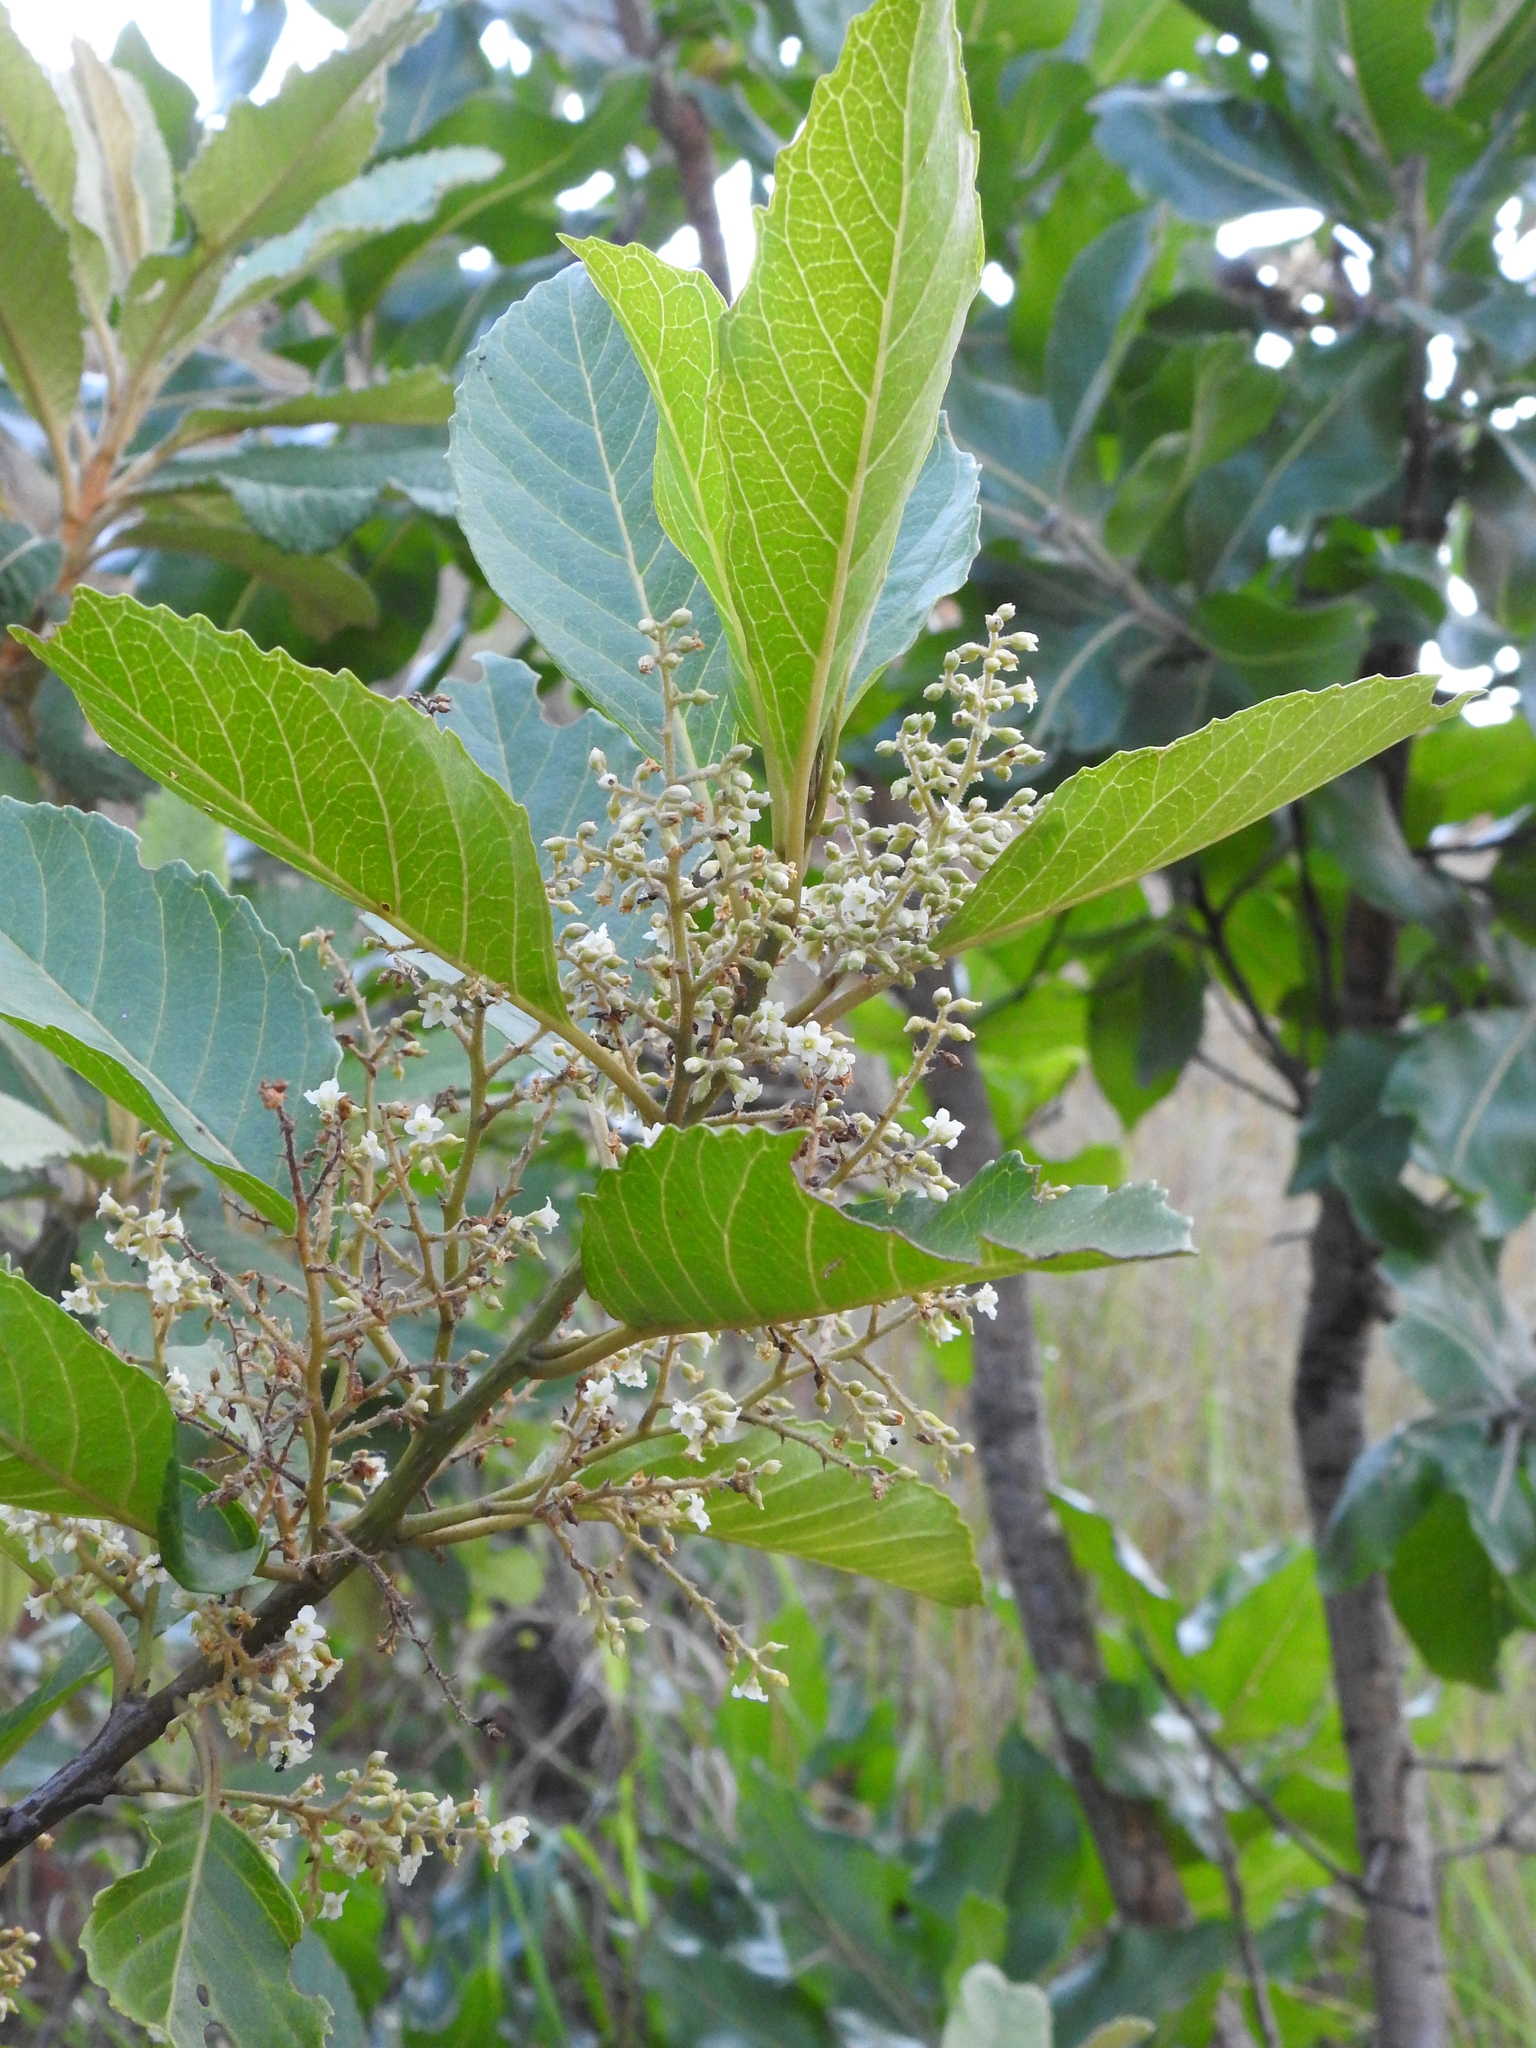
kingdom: Plantae
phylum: Tracheophyta
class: Magnoliopsida
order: Ericales
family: Primulaceae
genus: Maesa
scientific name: Maesa lanceolata
